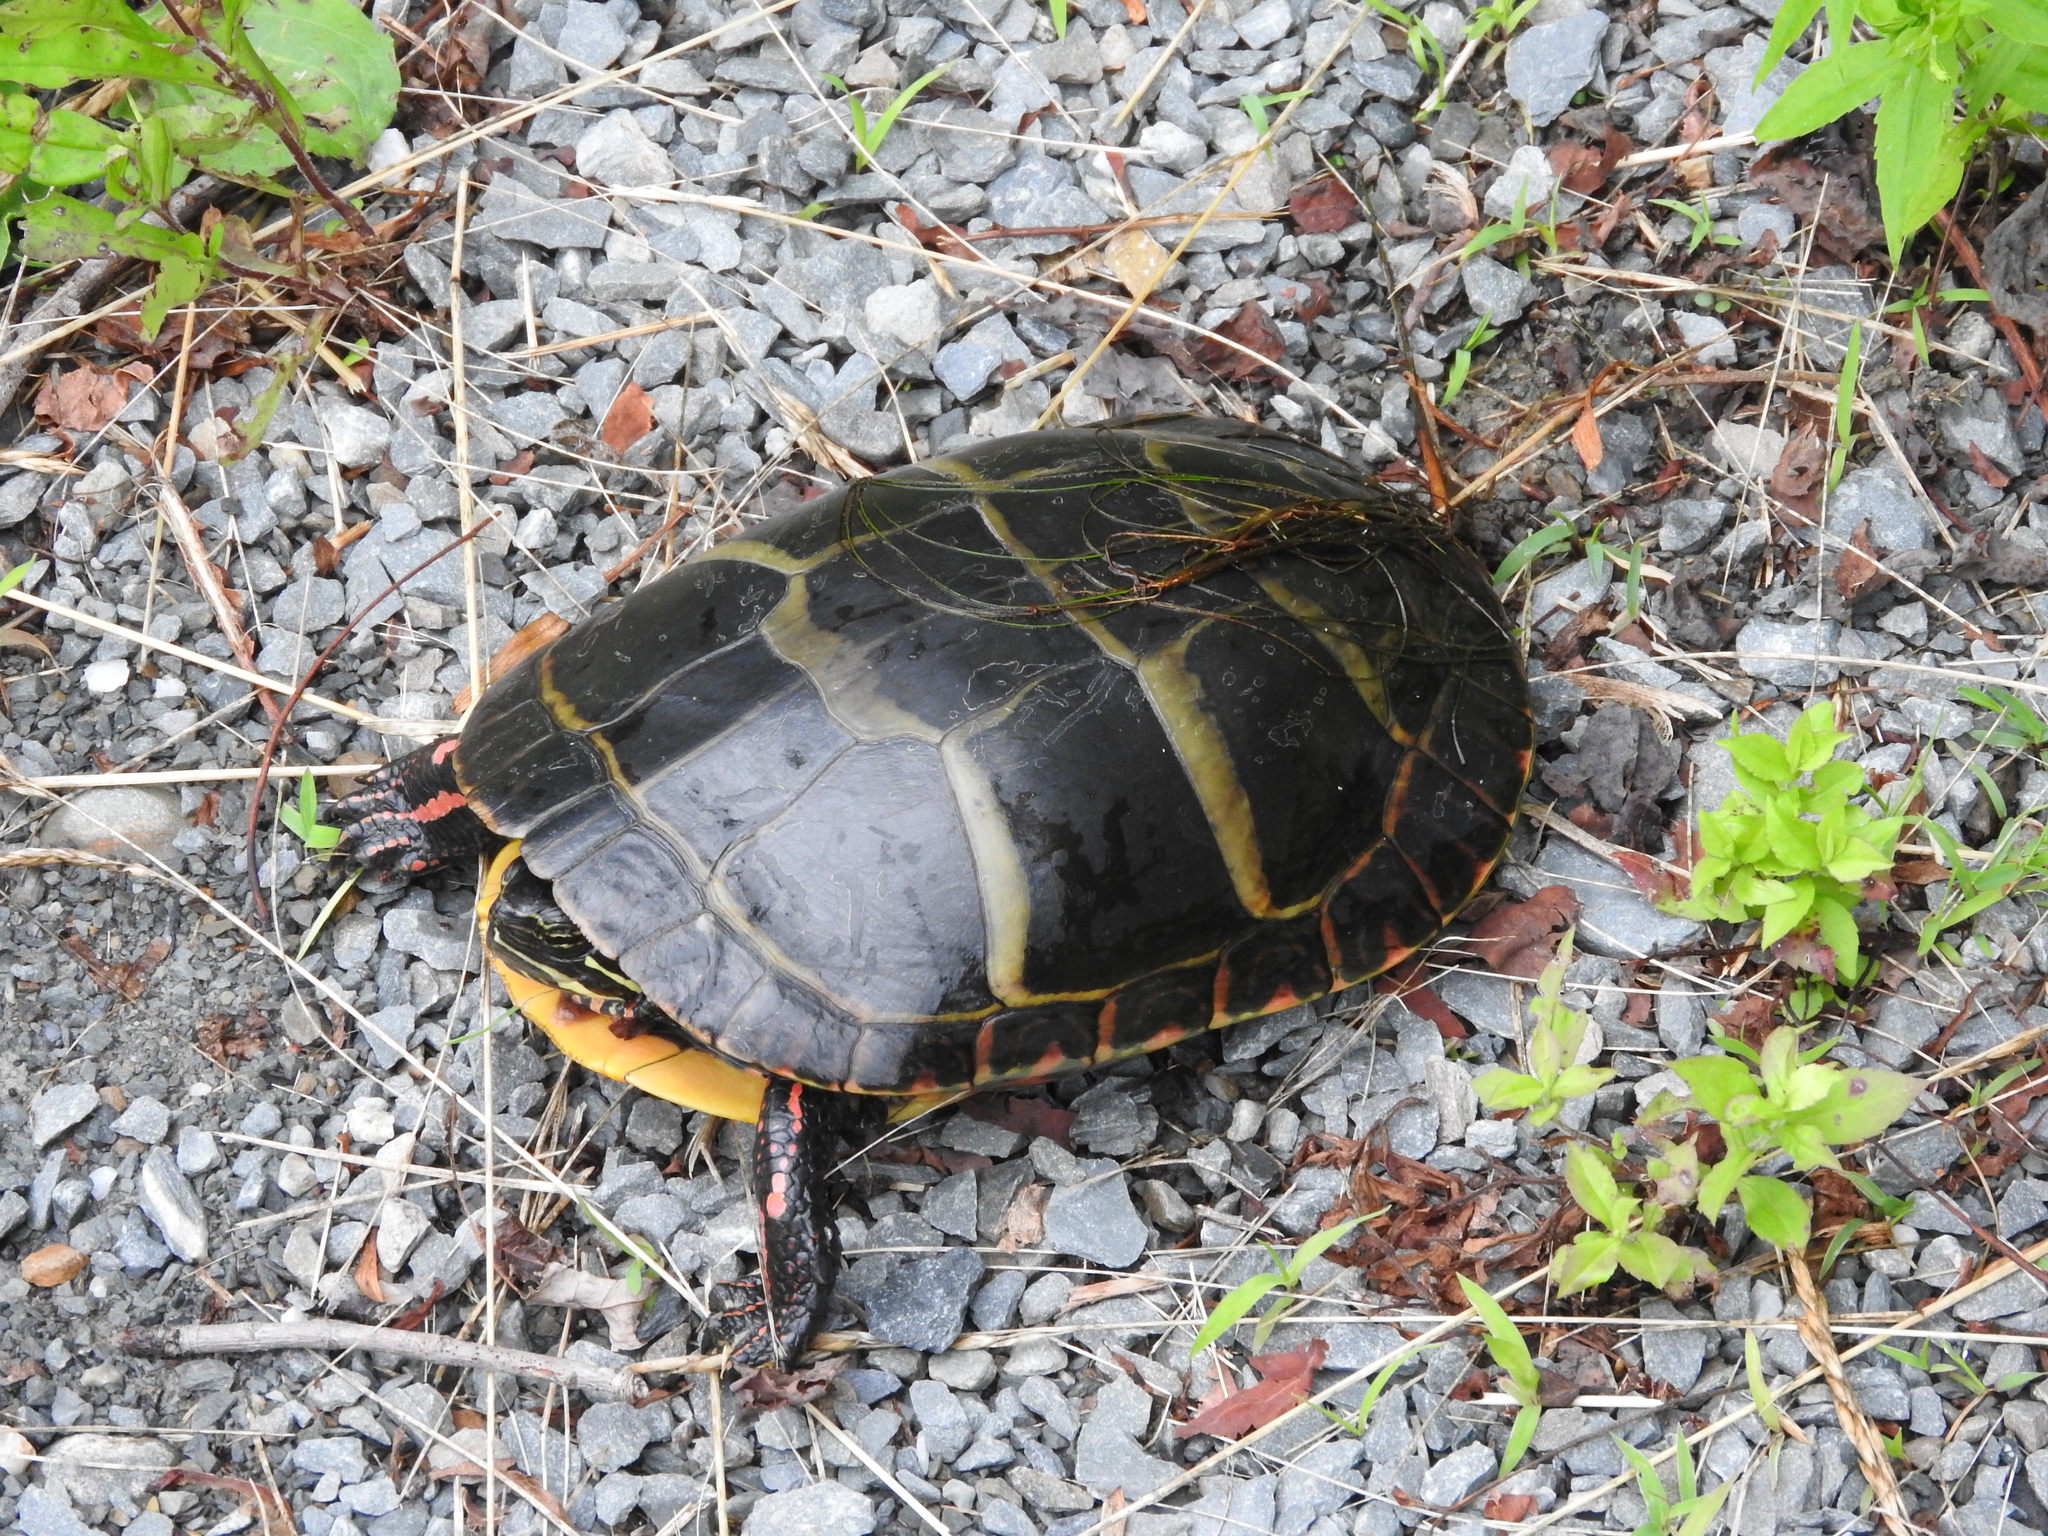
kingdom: Animalia
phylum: Chordata
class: Testudines
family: Emydidae
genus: Chrysemys
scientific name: Chrysemys picta
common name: Painted turtle
